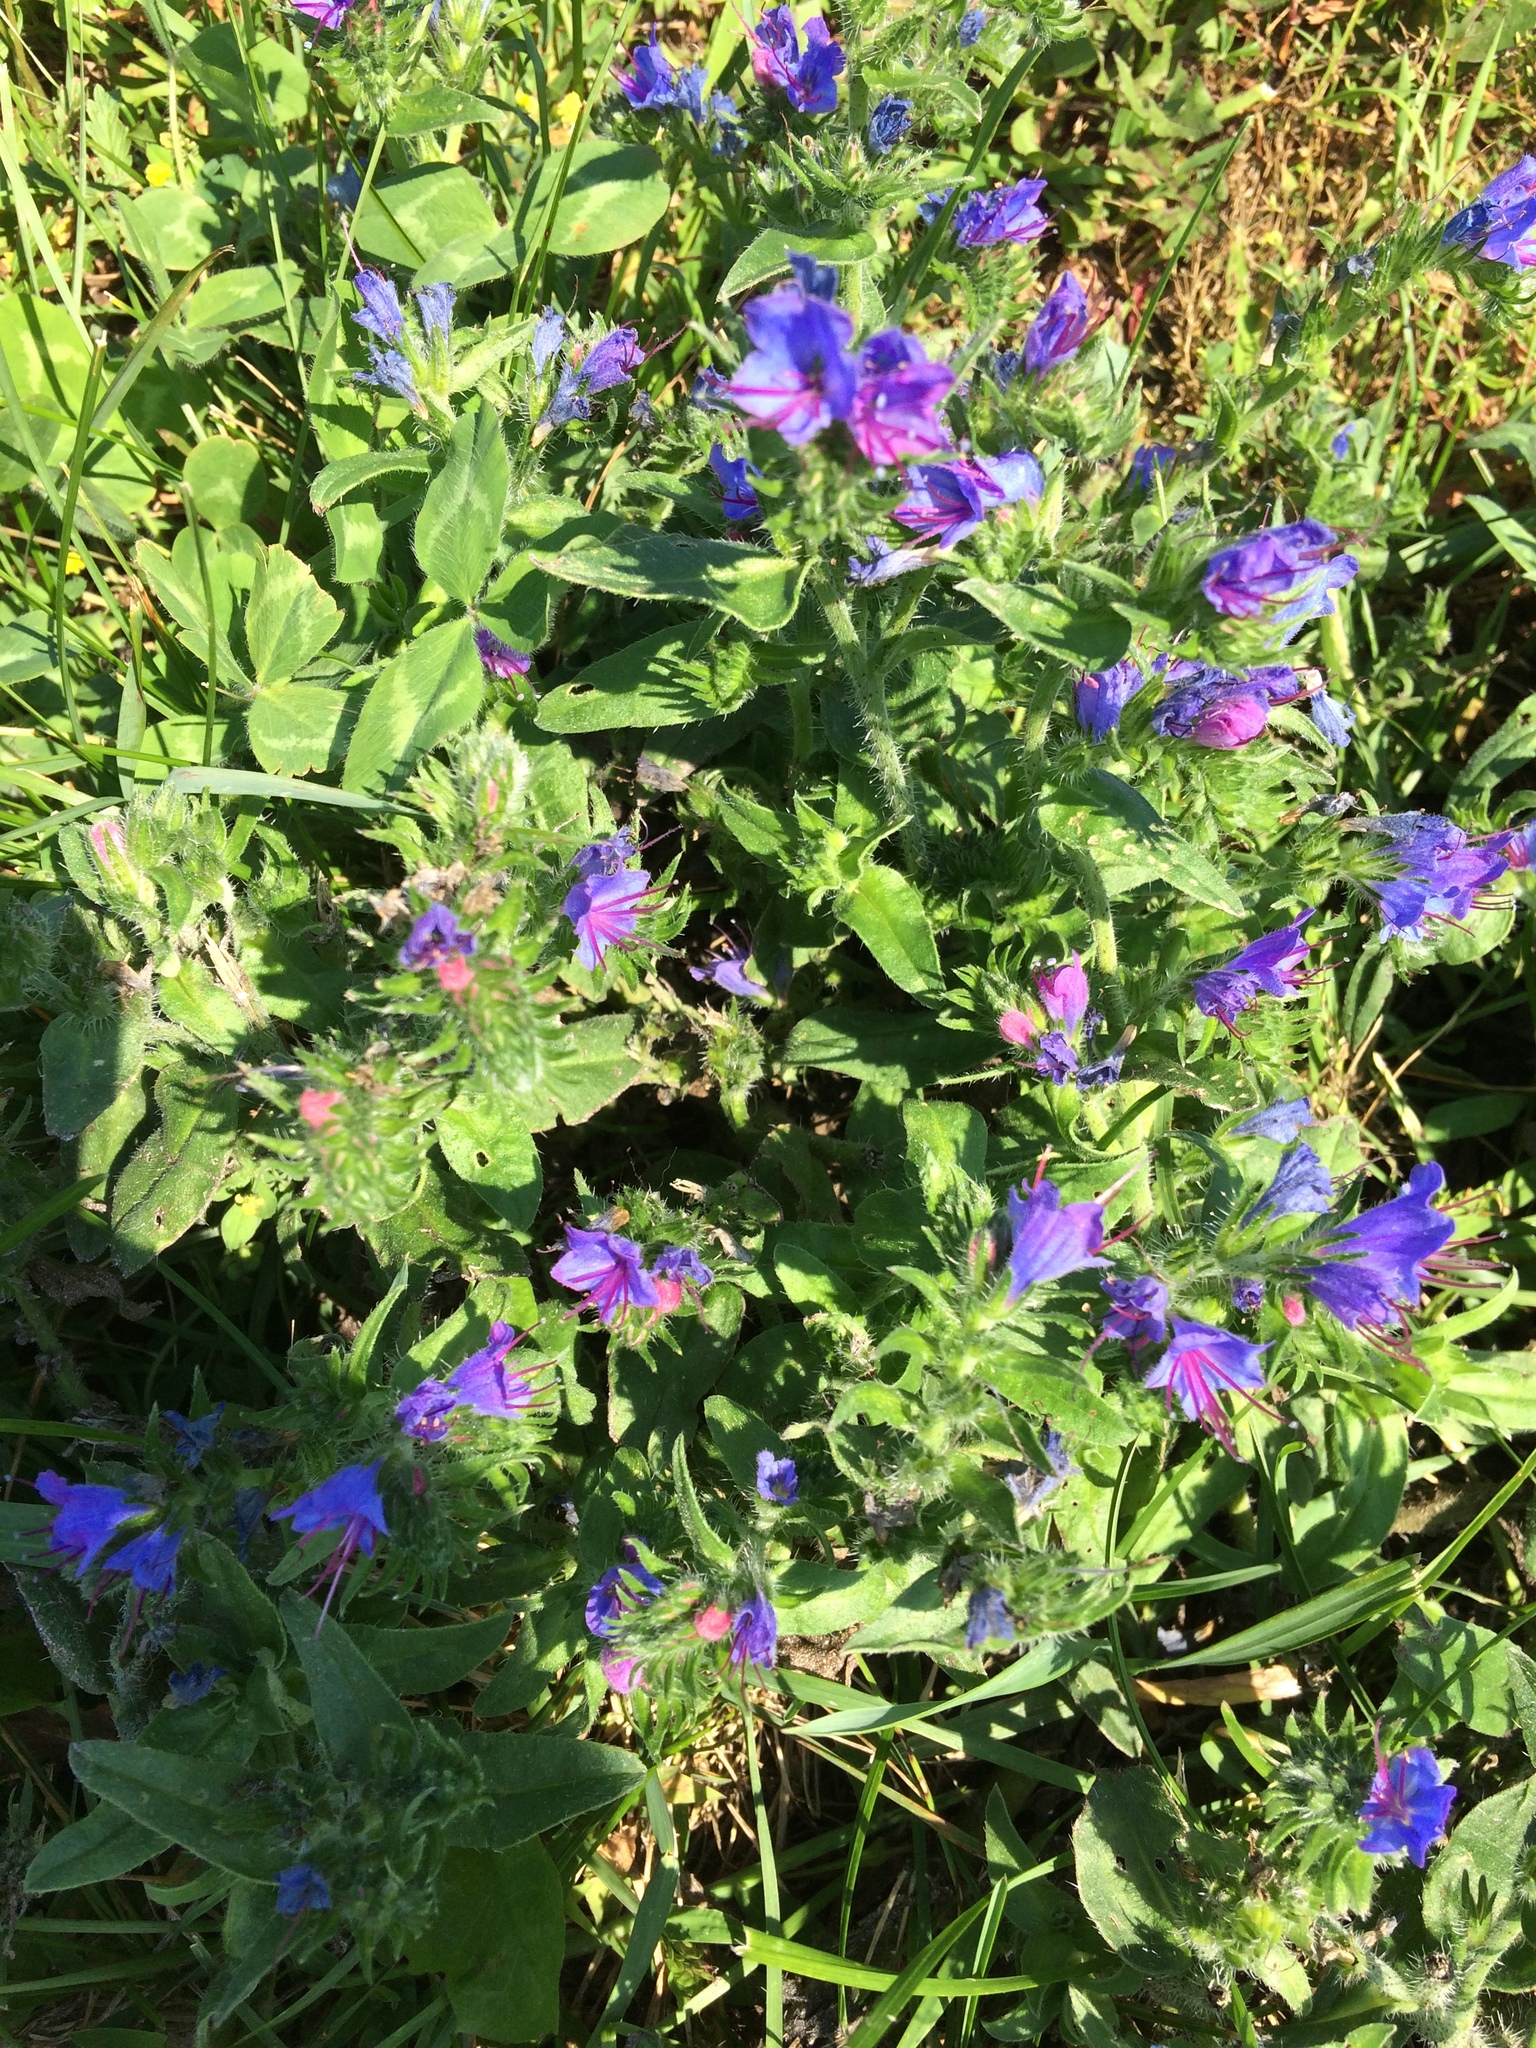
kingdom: Plantae
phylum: Tracheophyta
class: Magnoliopsida
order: Boraginales
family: Boraginaceae
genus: Echium
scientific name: Echium vulgare
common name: Common viper's bugloss
